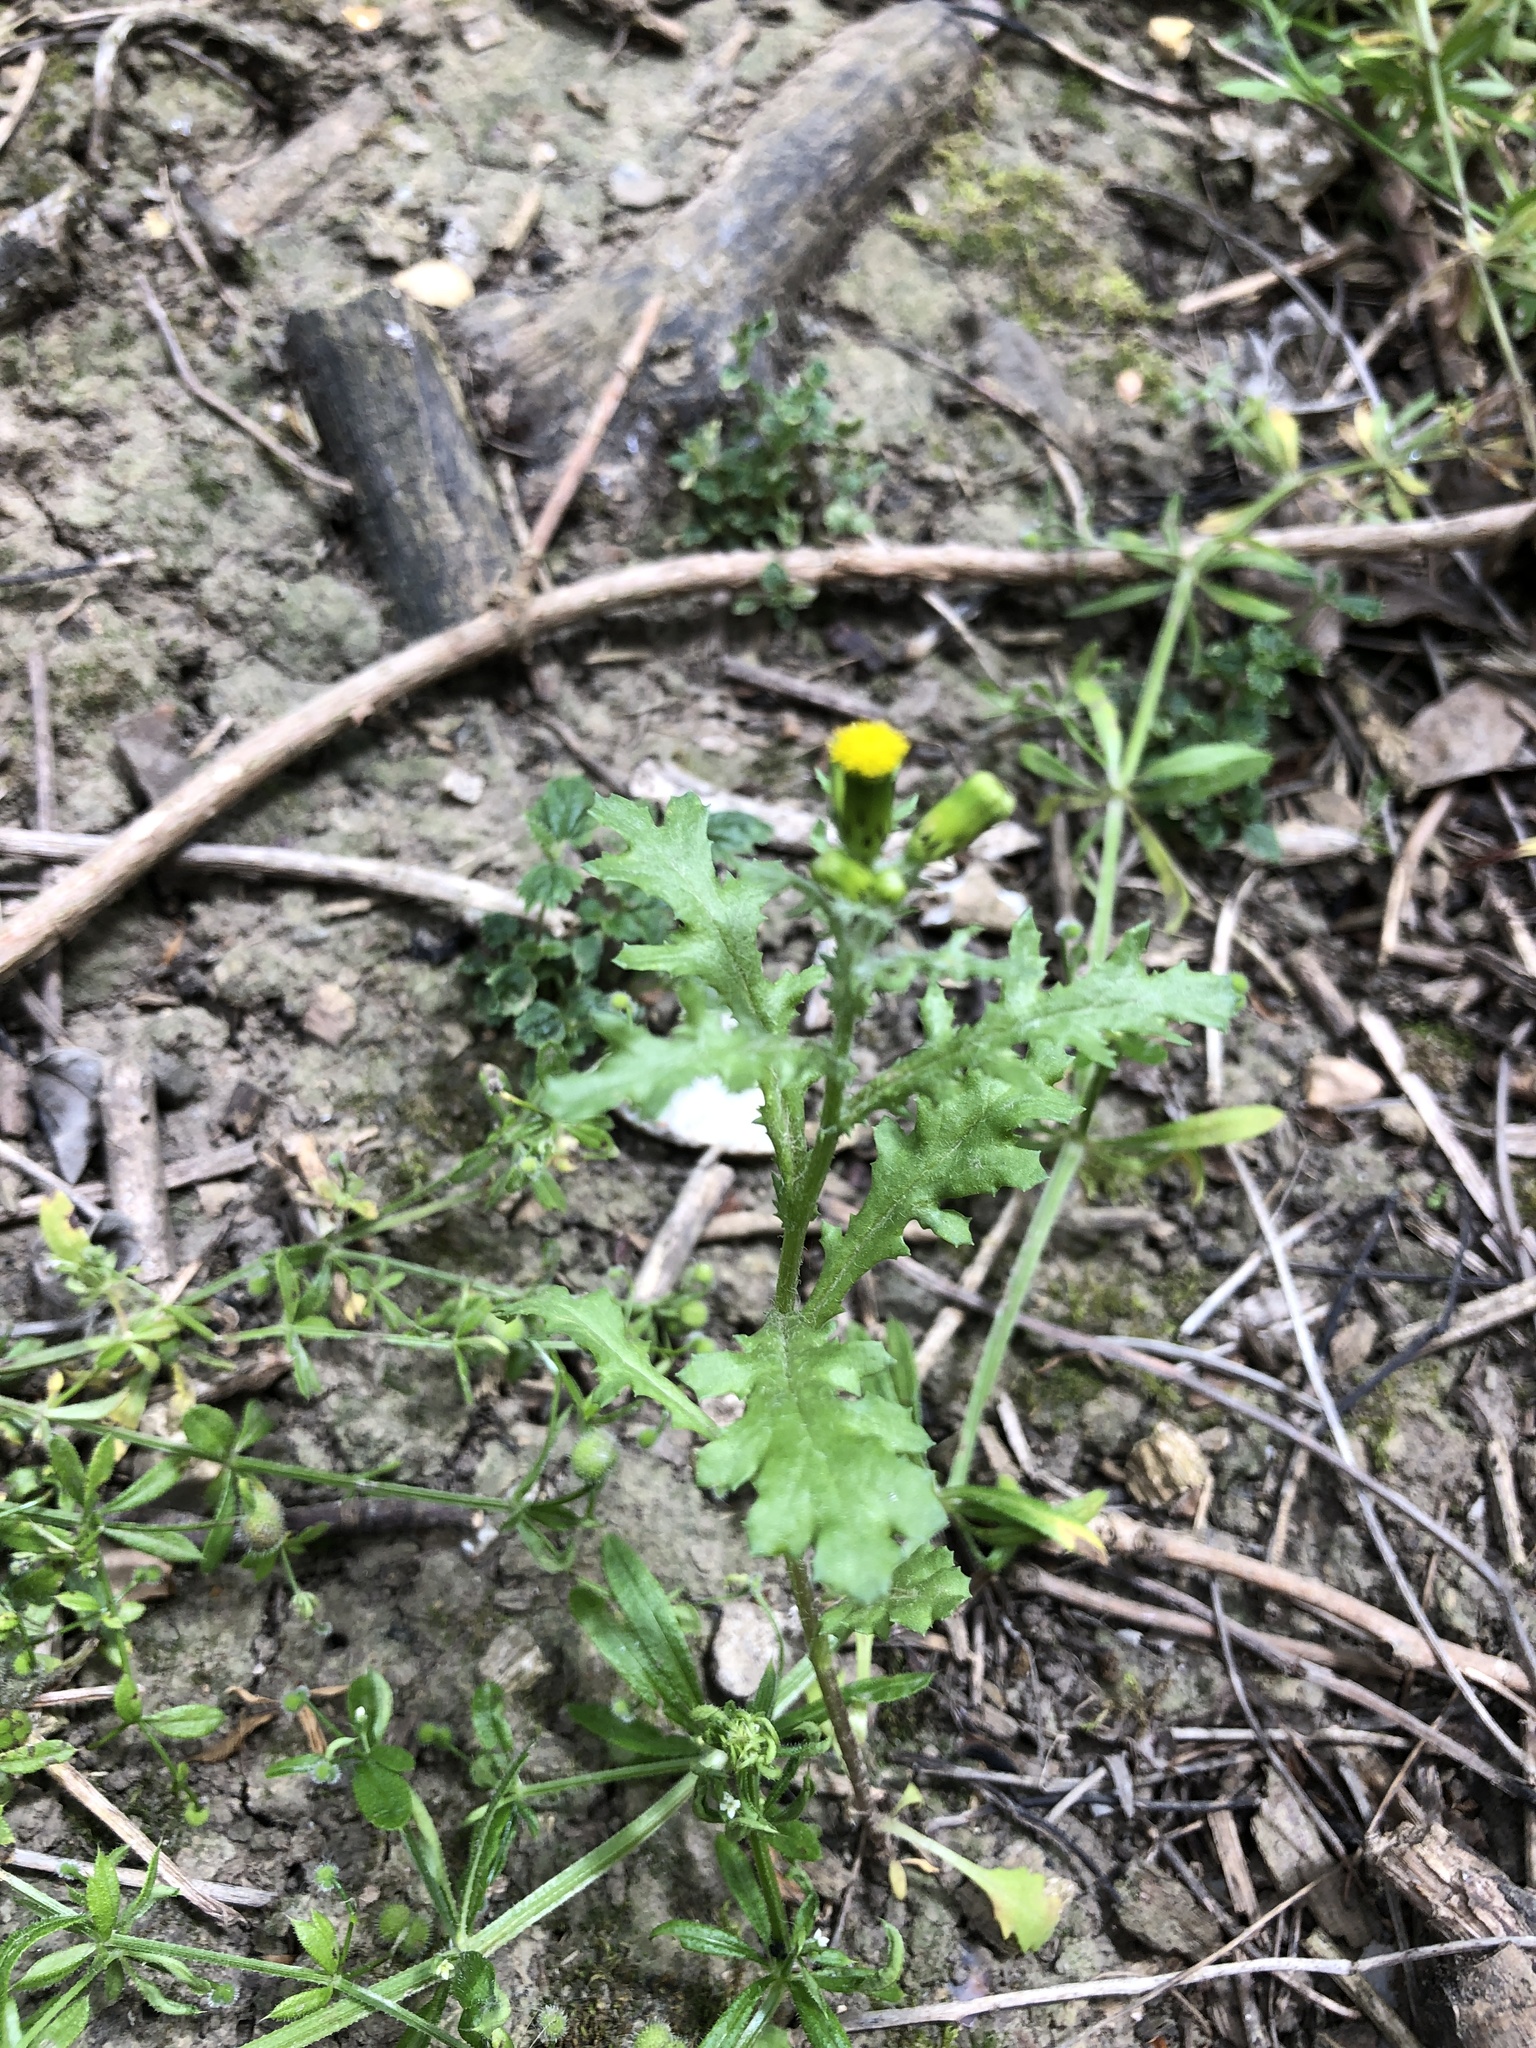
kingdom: Plantae
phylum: Tracheophyta
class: Magnoliopsida
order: Asterales
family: Asteraceae
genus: Senecio
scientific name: Senecio vulgaris
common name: Old-man-in-the-spring
